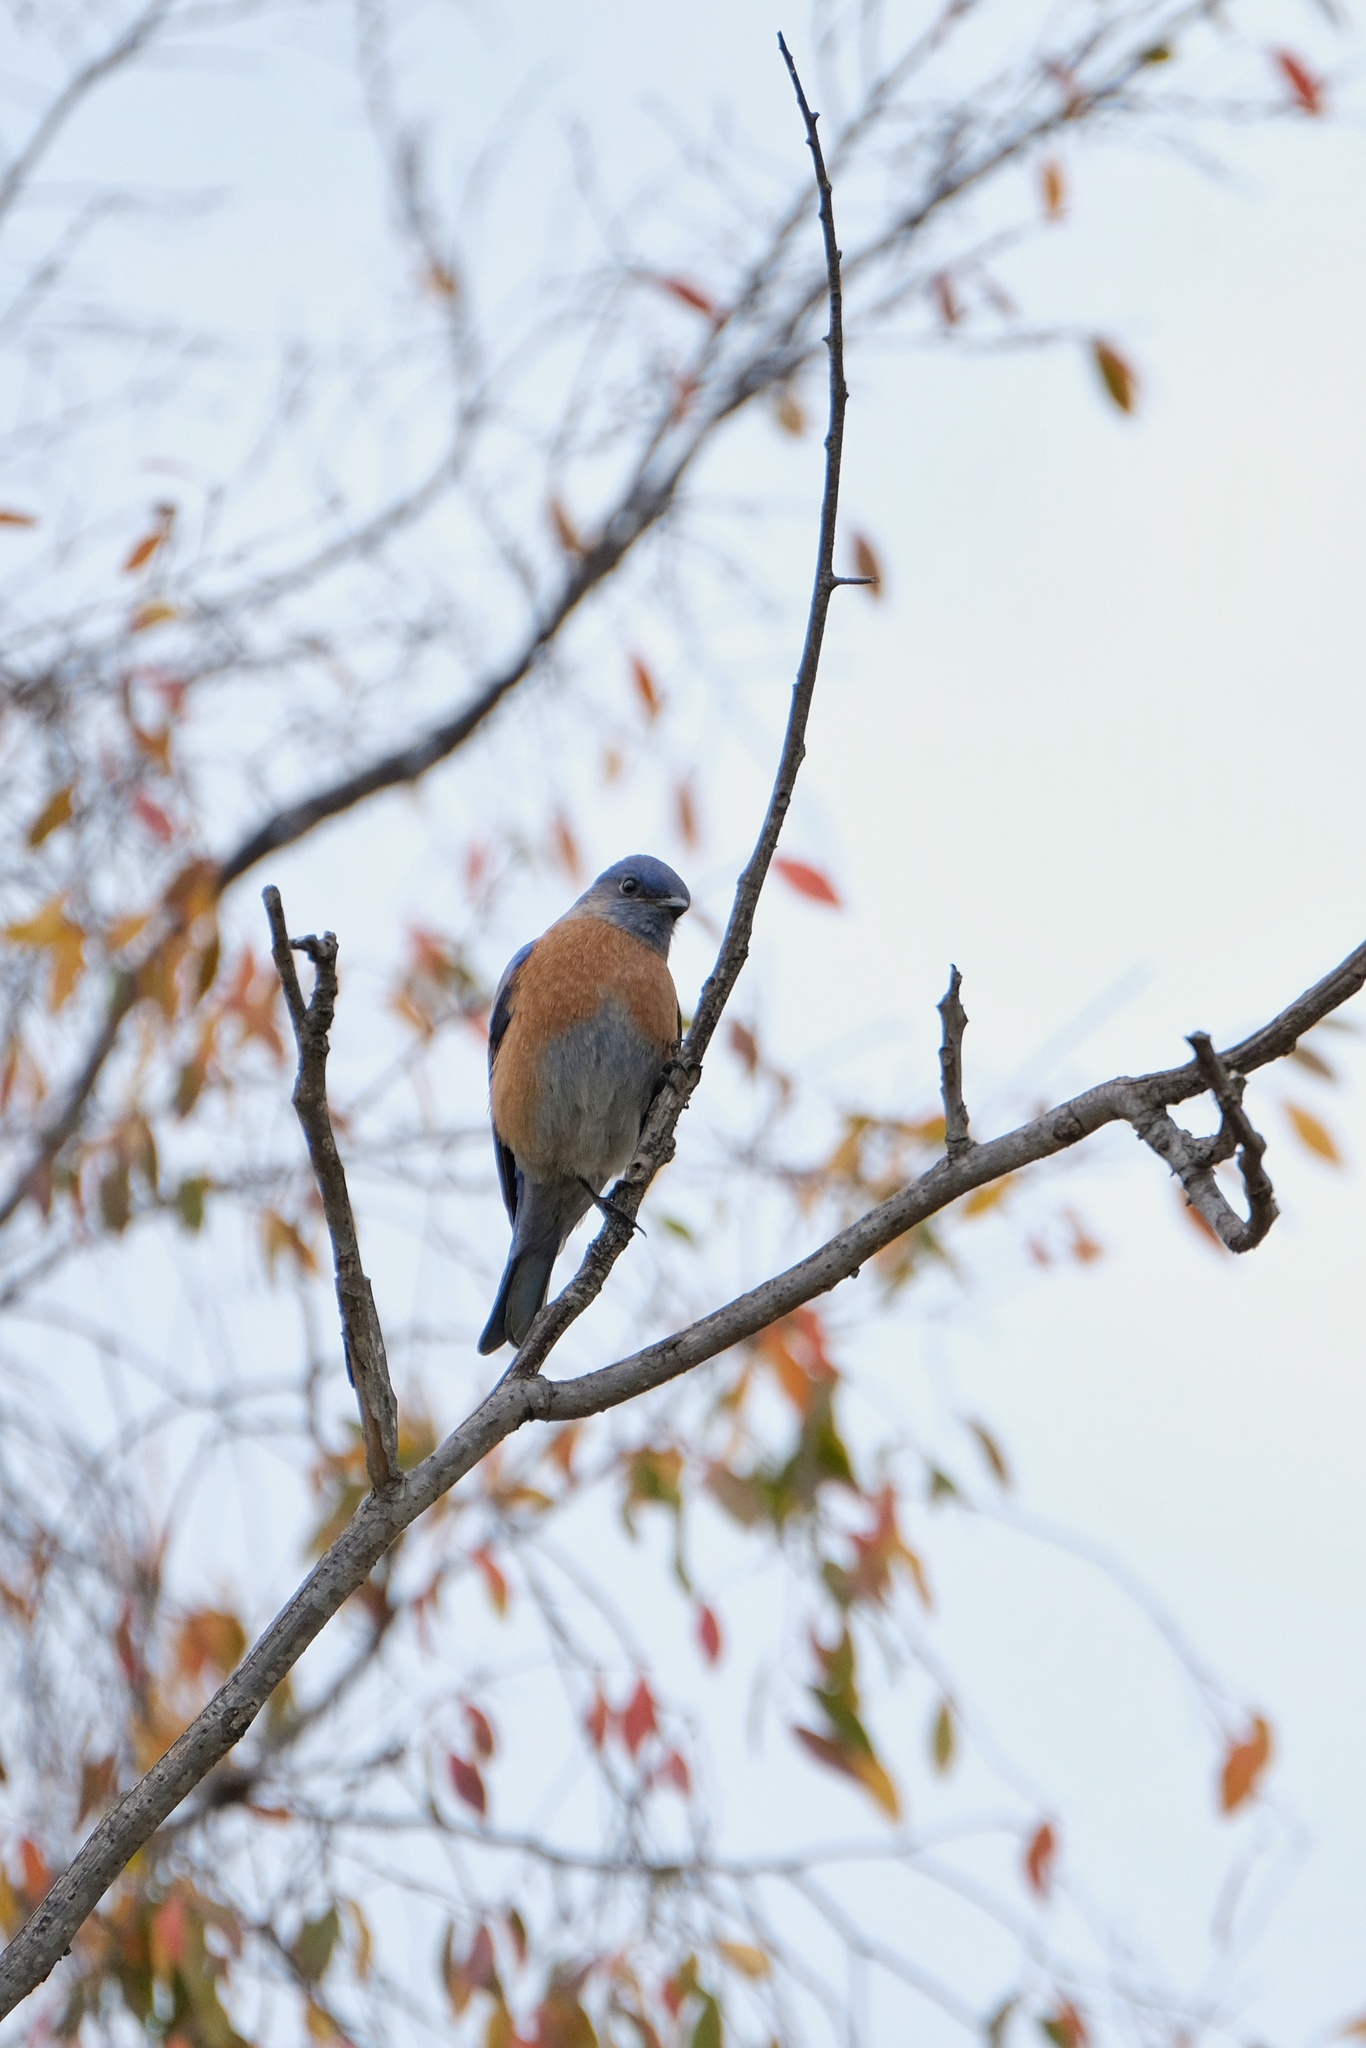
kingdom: Animalia
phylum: Chordata
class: Aves
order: Passeriformes
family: Turdidae
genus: Sialia
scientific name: Sialia mexicana
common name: Western bluebird
